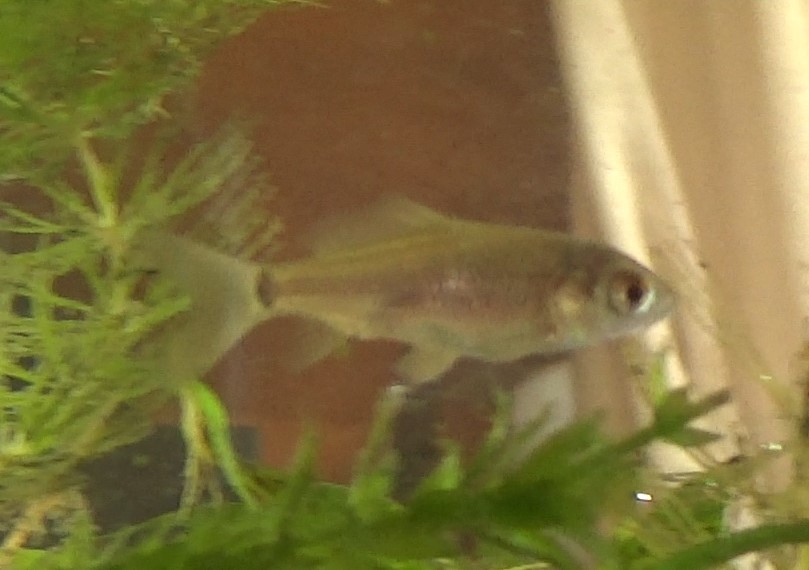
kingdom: Animalia
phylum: Chordata
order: Cypriniformes
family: Cyprinidae
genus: Carassius
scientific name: Carassius gibelio
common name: Prussian carp
